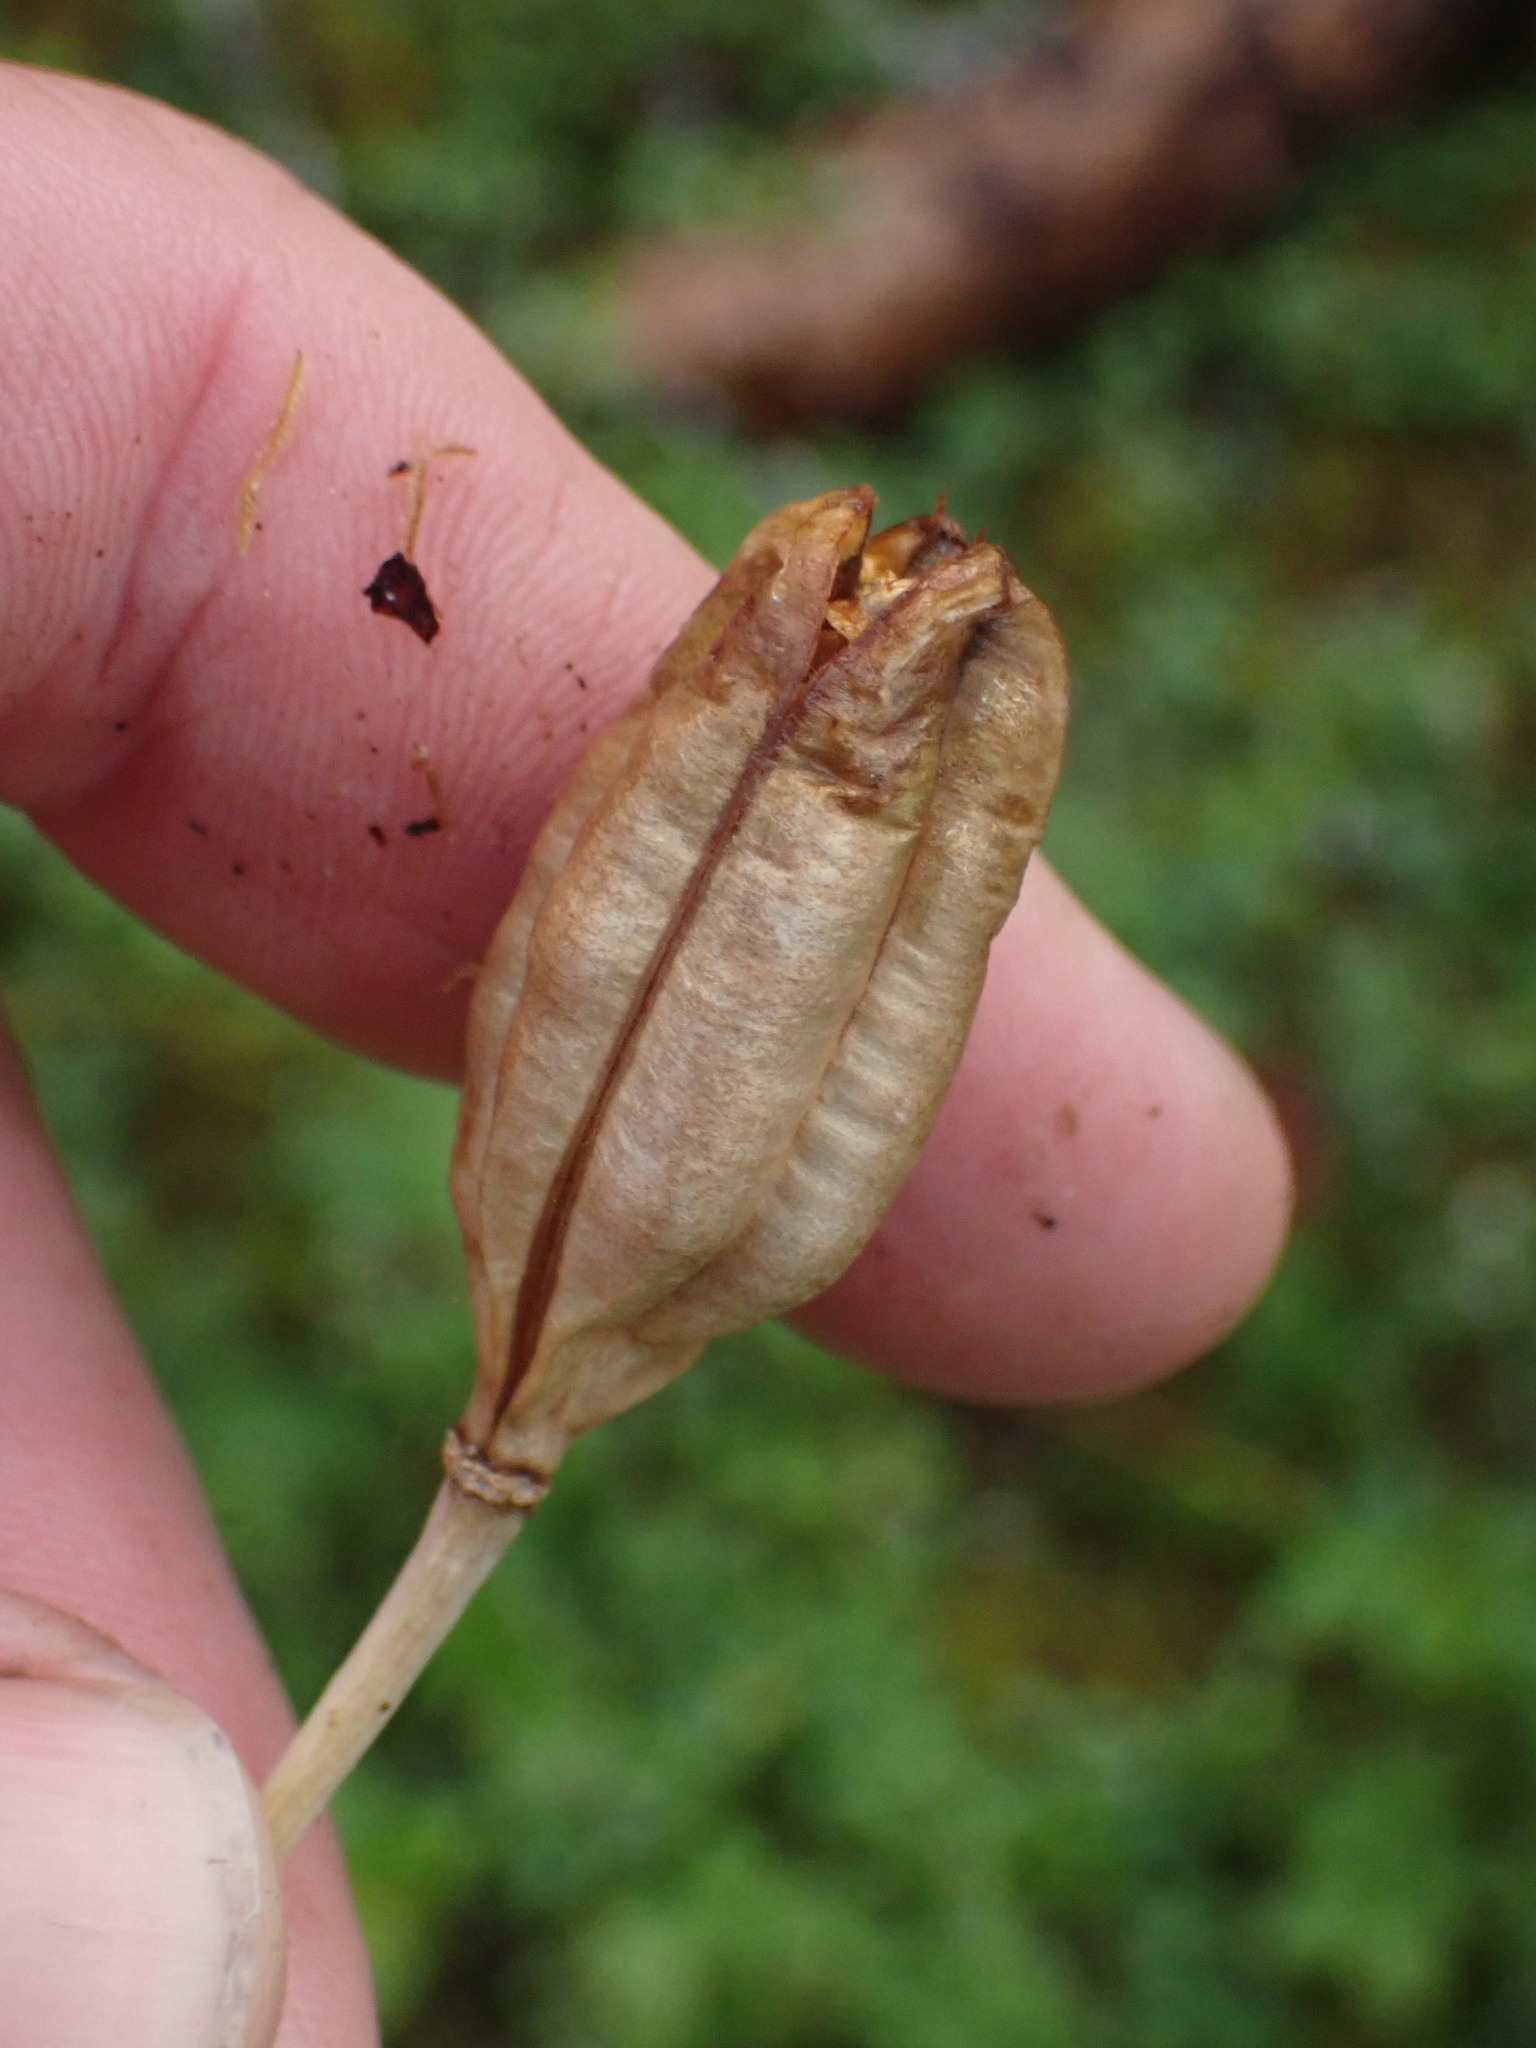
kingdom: Plantae
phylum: Tracheophyta
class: Liliopsida
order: Liliales
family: Liliaceae
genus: Lilium
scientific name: Lilium columbianum
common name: Columbia lily
